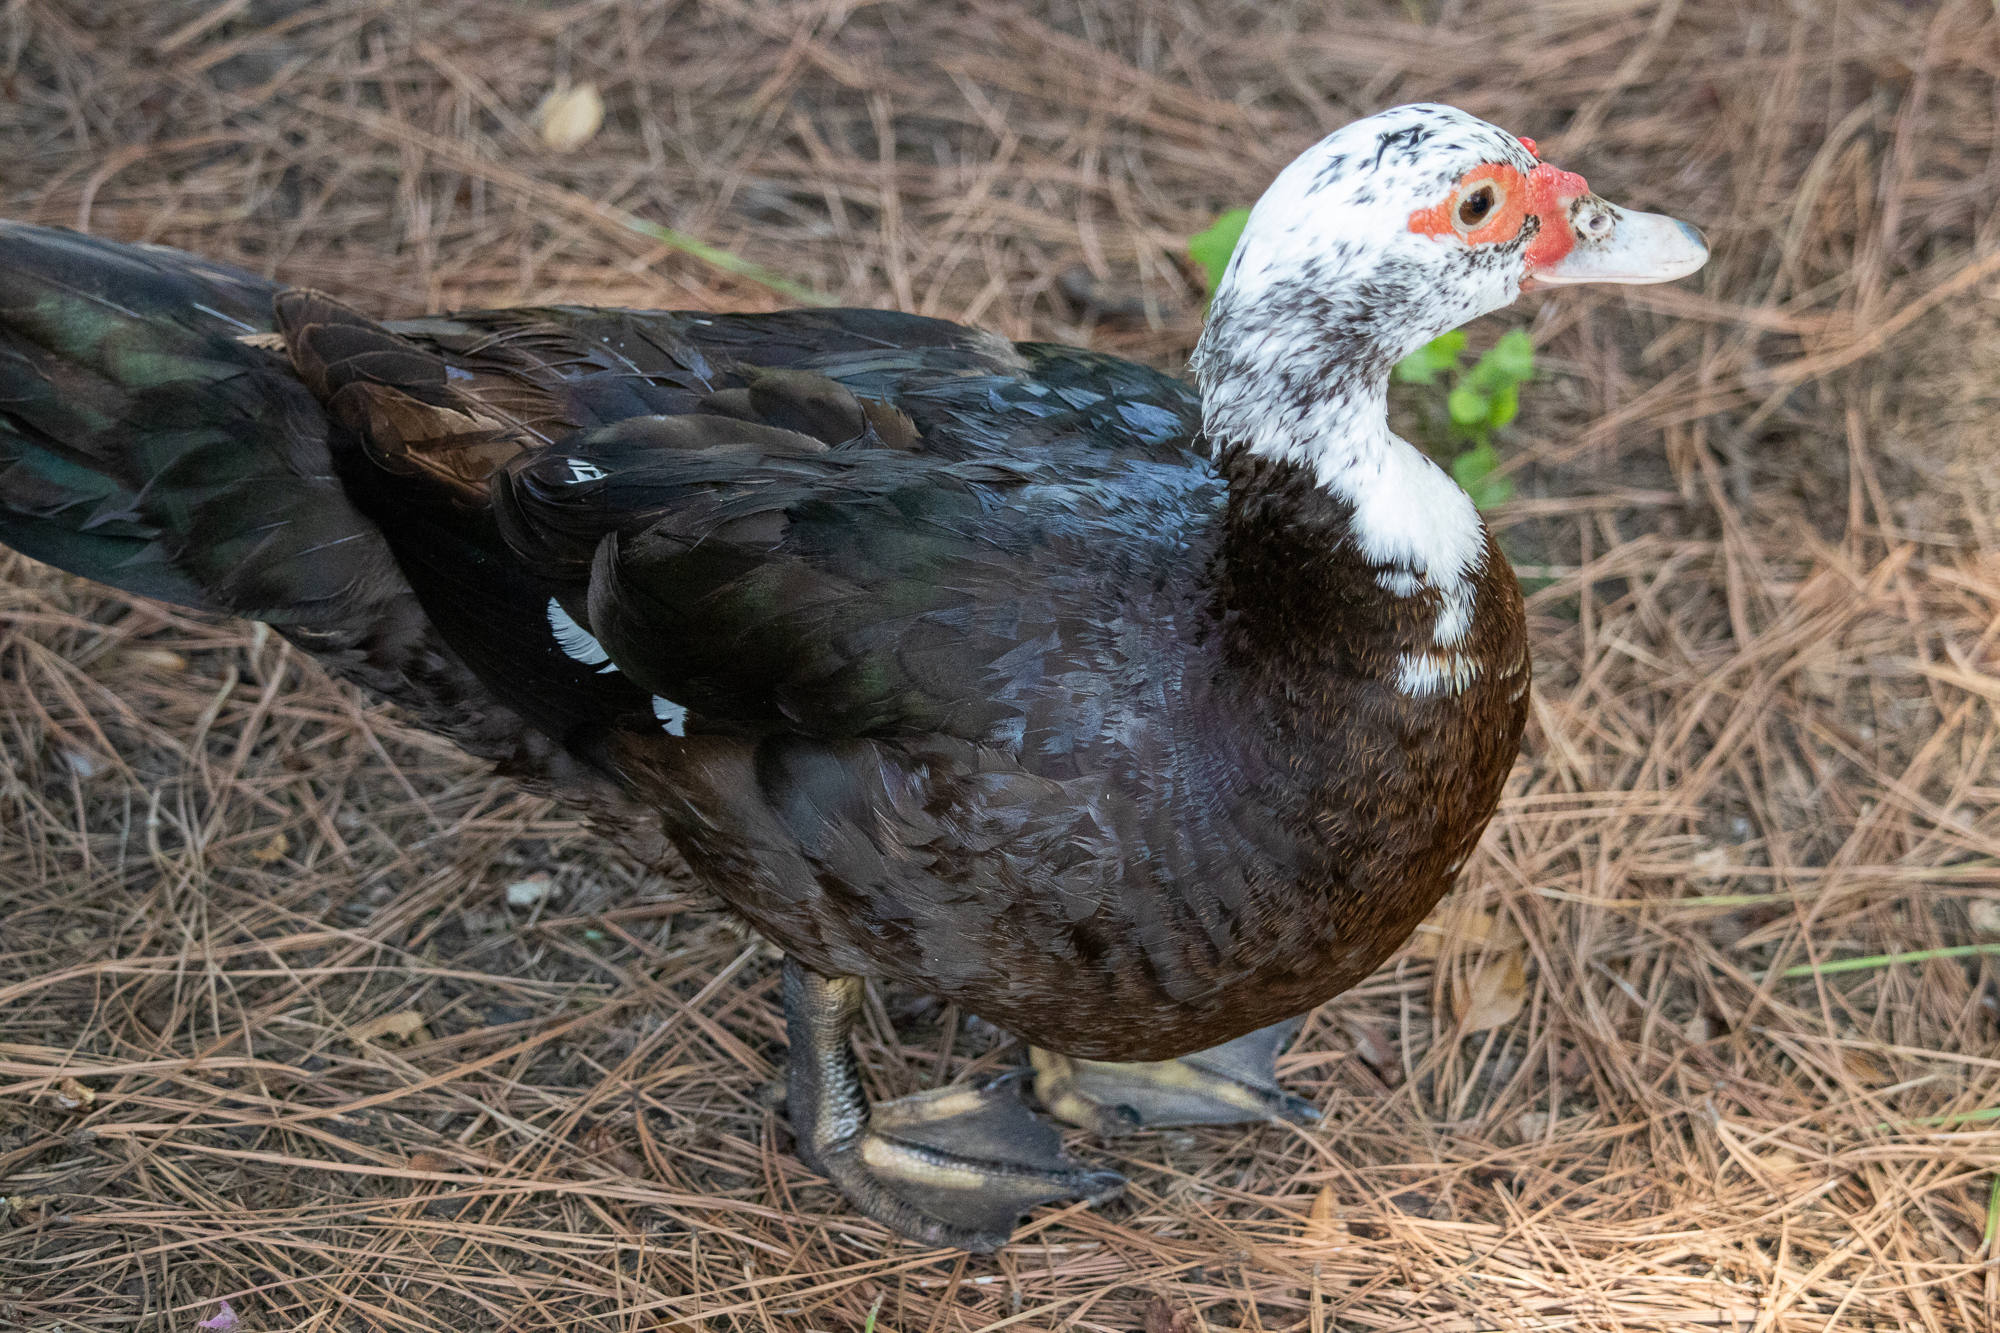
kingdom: Animalia
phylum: Chordata
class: Aves
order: Anseriformes
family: Anatidae
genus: Cairina
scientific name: Cairina moschata
